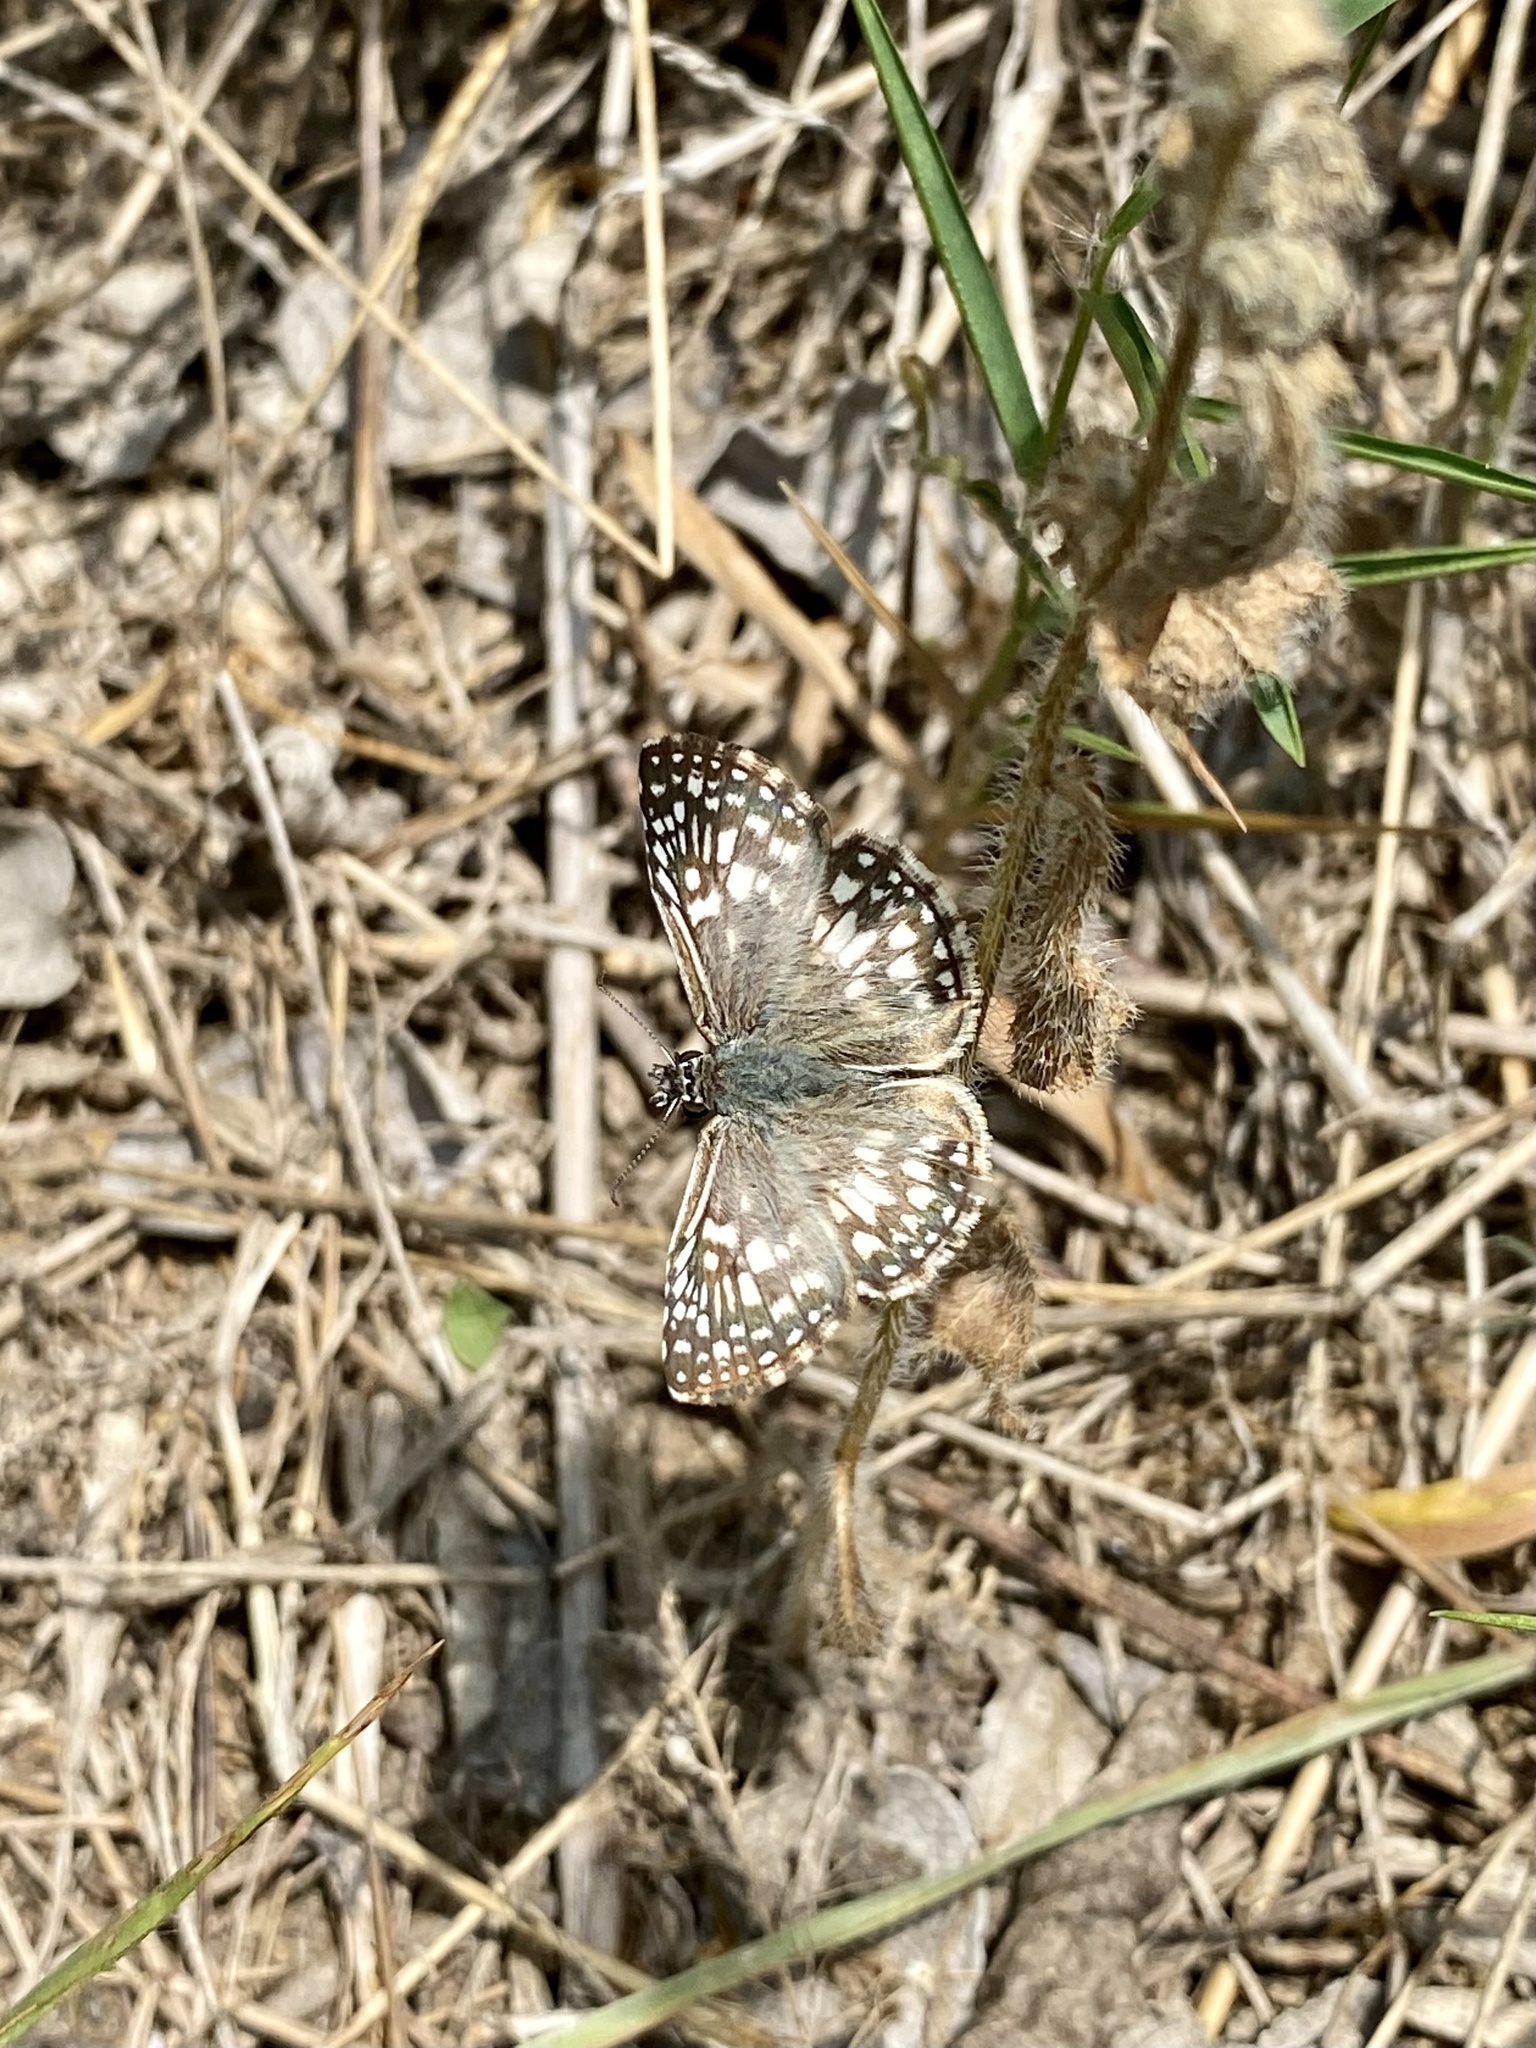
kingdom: Animalia
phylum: Arthropoda
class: Insecta
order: Lepidoptera
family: Hesperiidae
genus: Pyrgus
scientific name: Pyrgus oileus
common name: Tropical checkered-skipper
